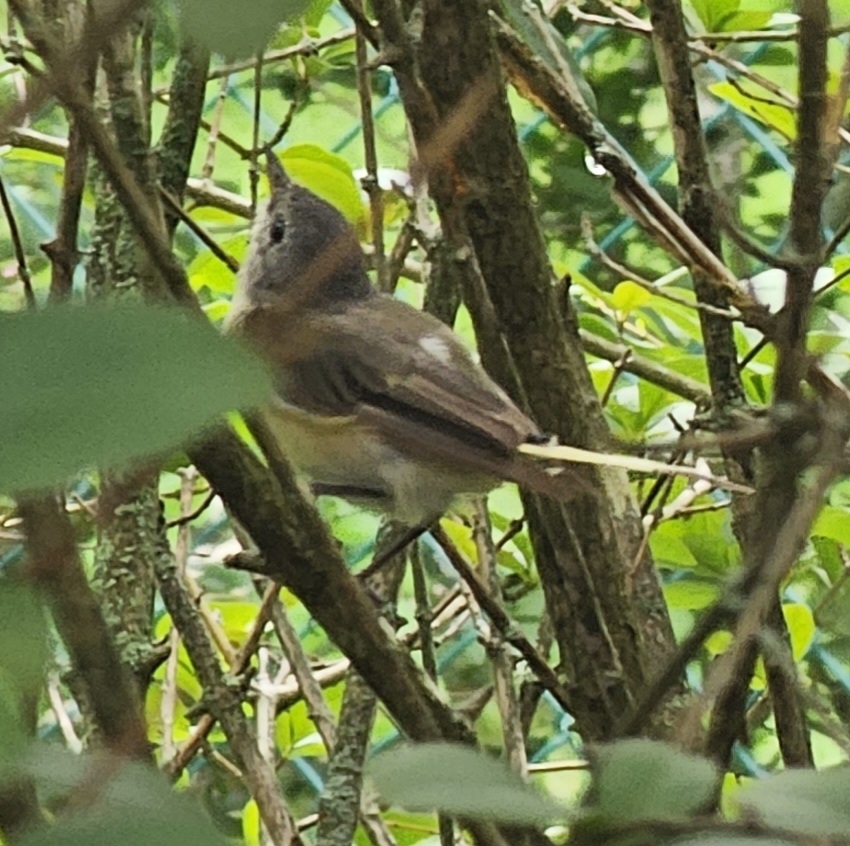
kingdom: Animalia
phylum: Chordata
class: Aves
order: Passeriformes
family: Parulidae
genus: Setophaga
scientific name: Setophaga ruticilla
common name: American redstart
